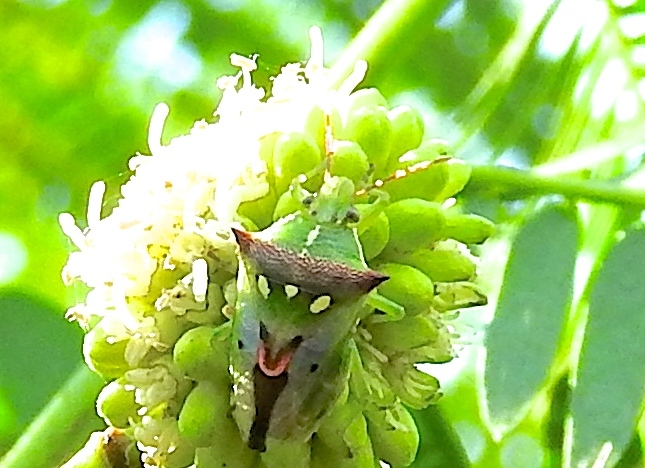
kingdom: Animalia
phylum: Arthropoda
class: Insecta
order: Hemiptera
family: Pentatomidae
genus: Tylospilus
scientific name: Tylospilus acutissimus
